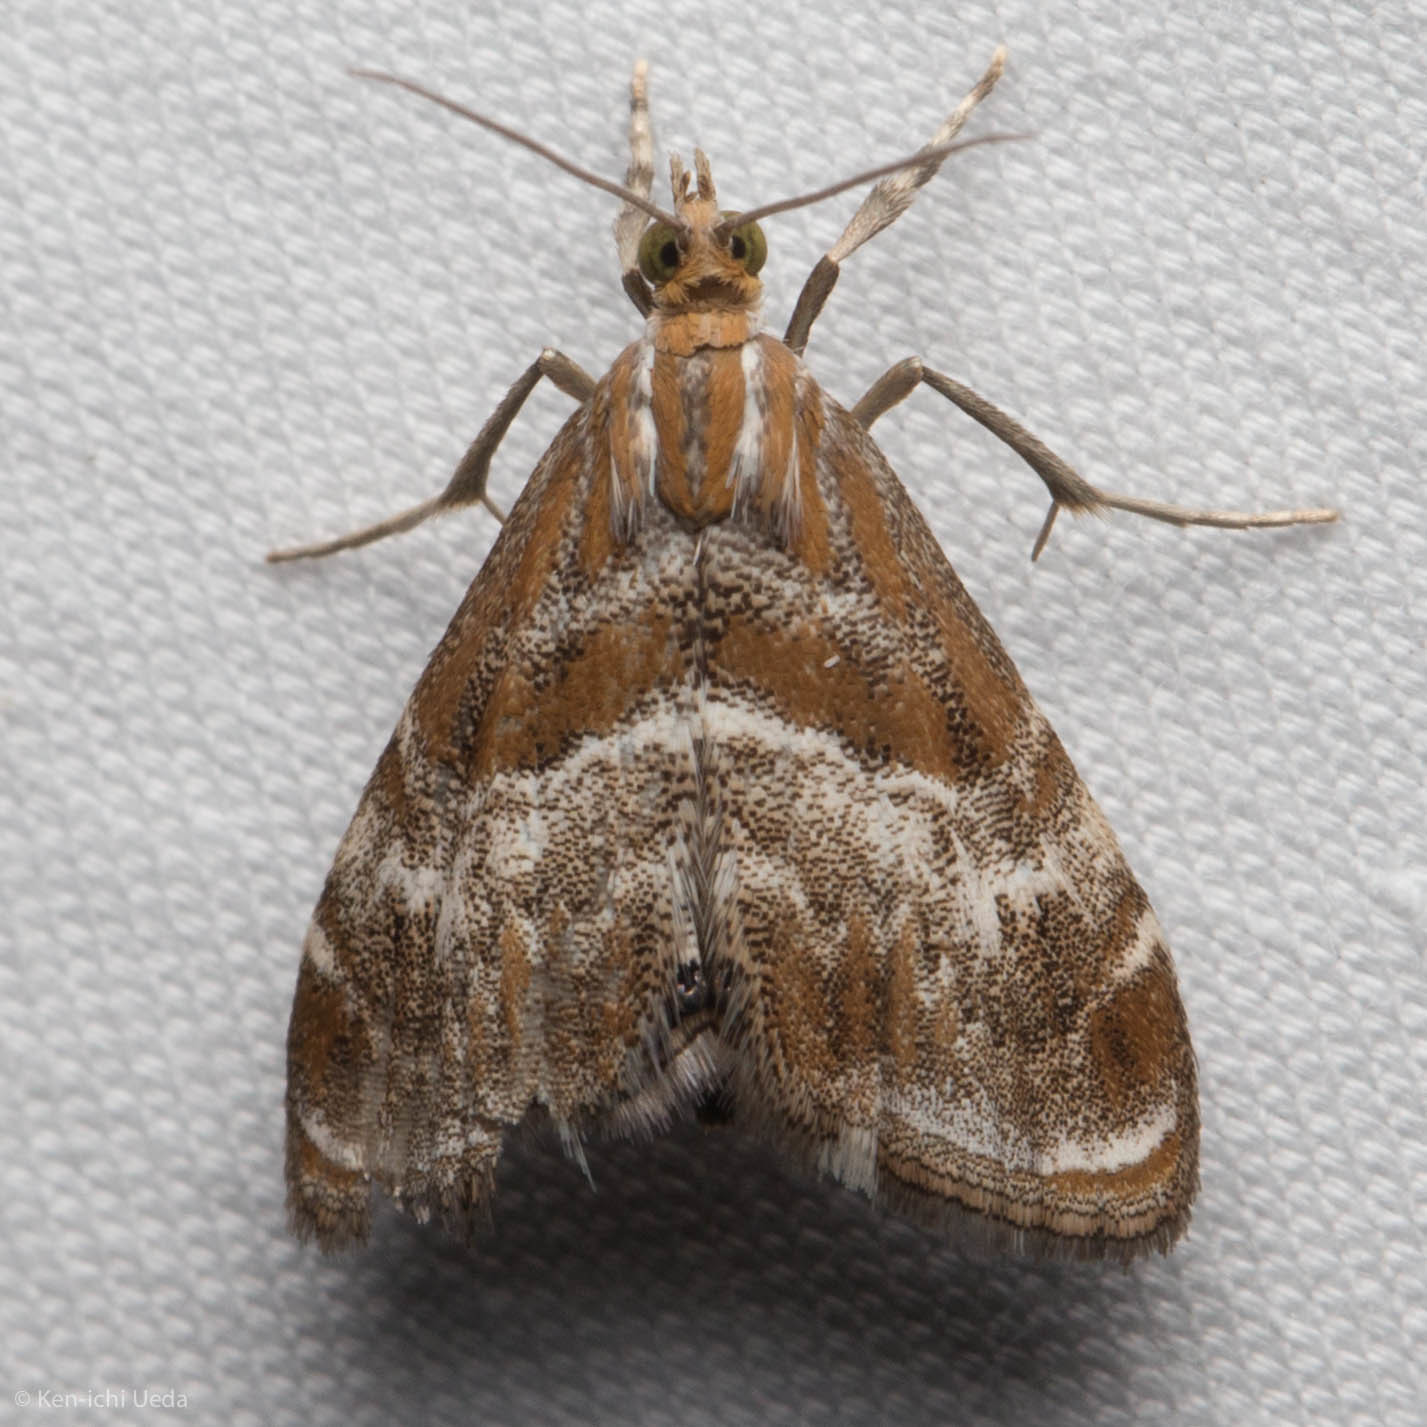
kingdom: Animalia
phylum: Arthropoda
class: Insecta
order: Lepidoptera
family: Crambidae
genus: Dicymolomia
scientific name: Dicymolomia metalliferalis
